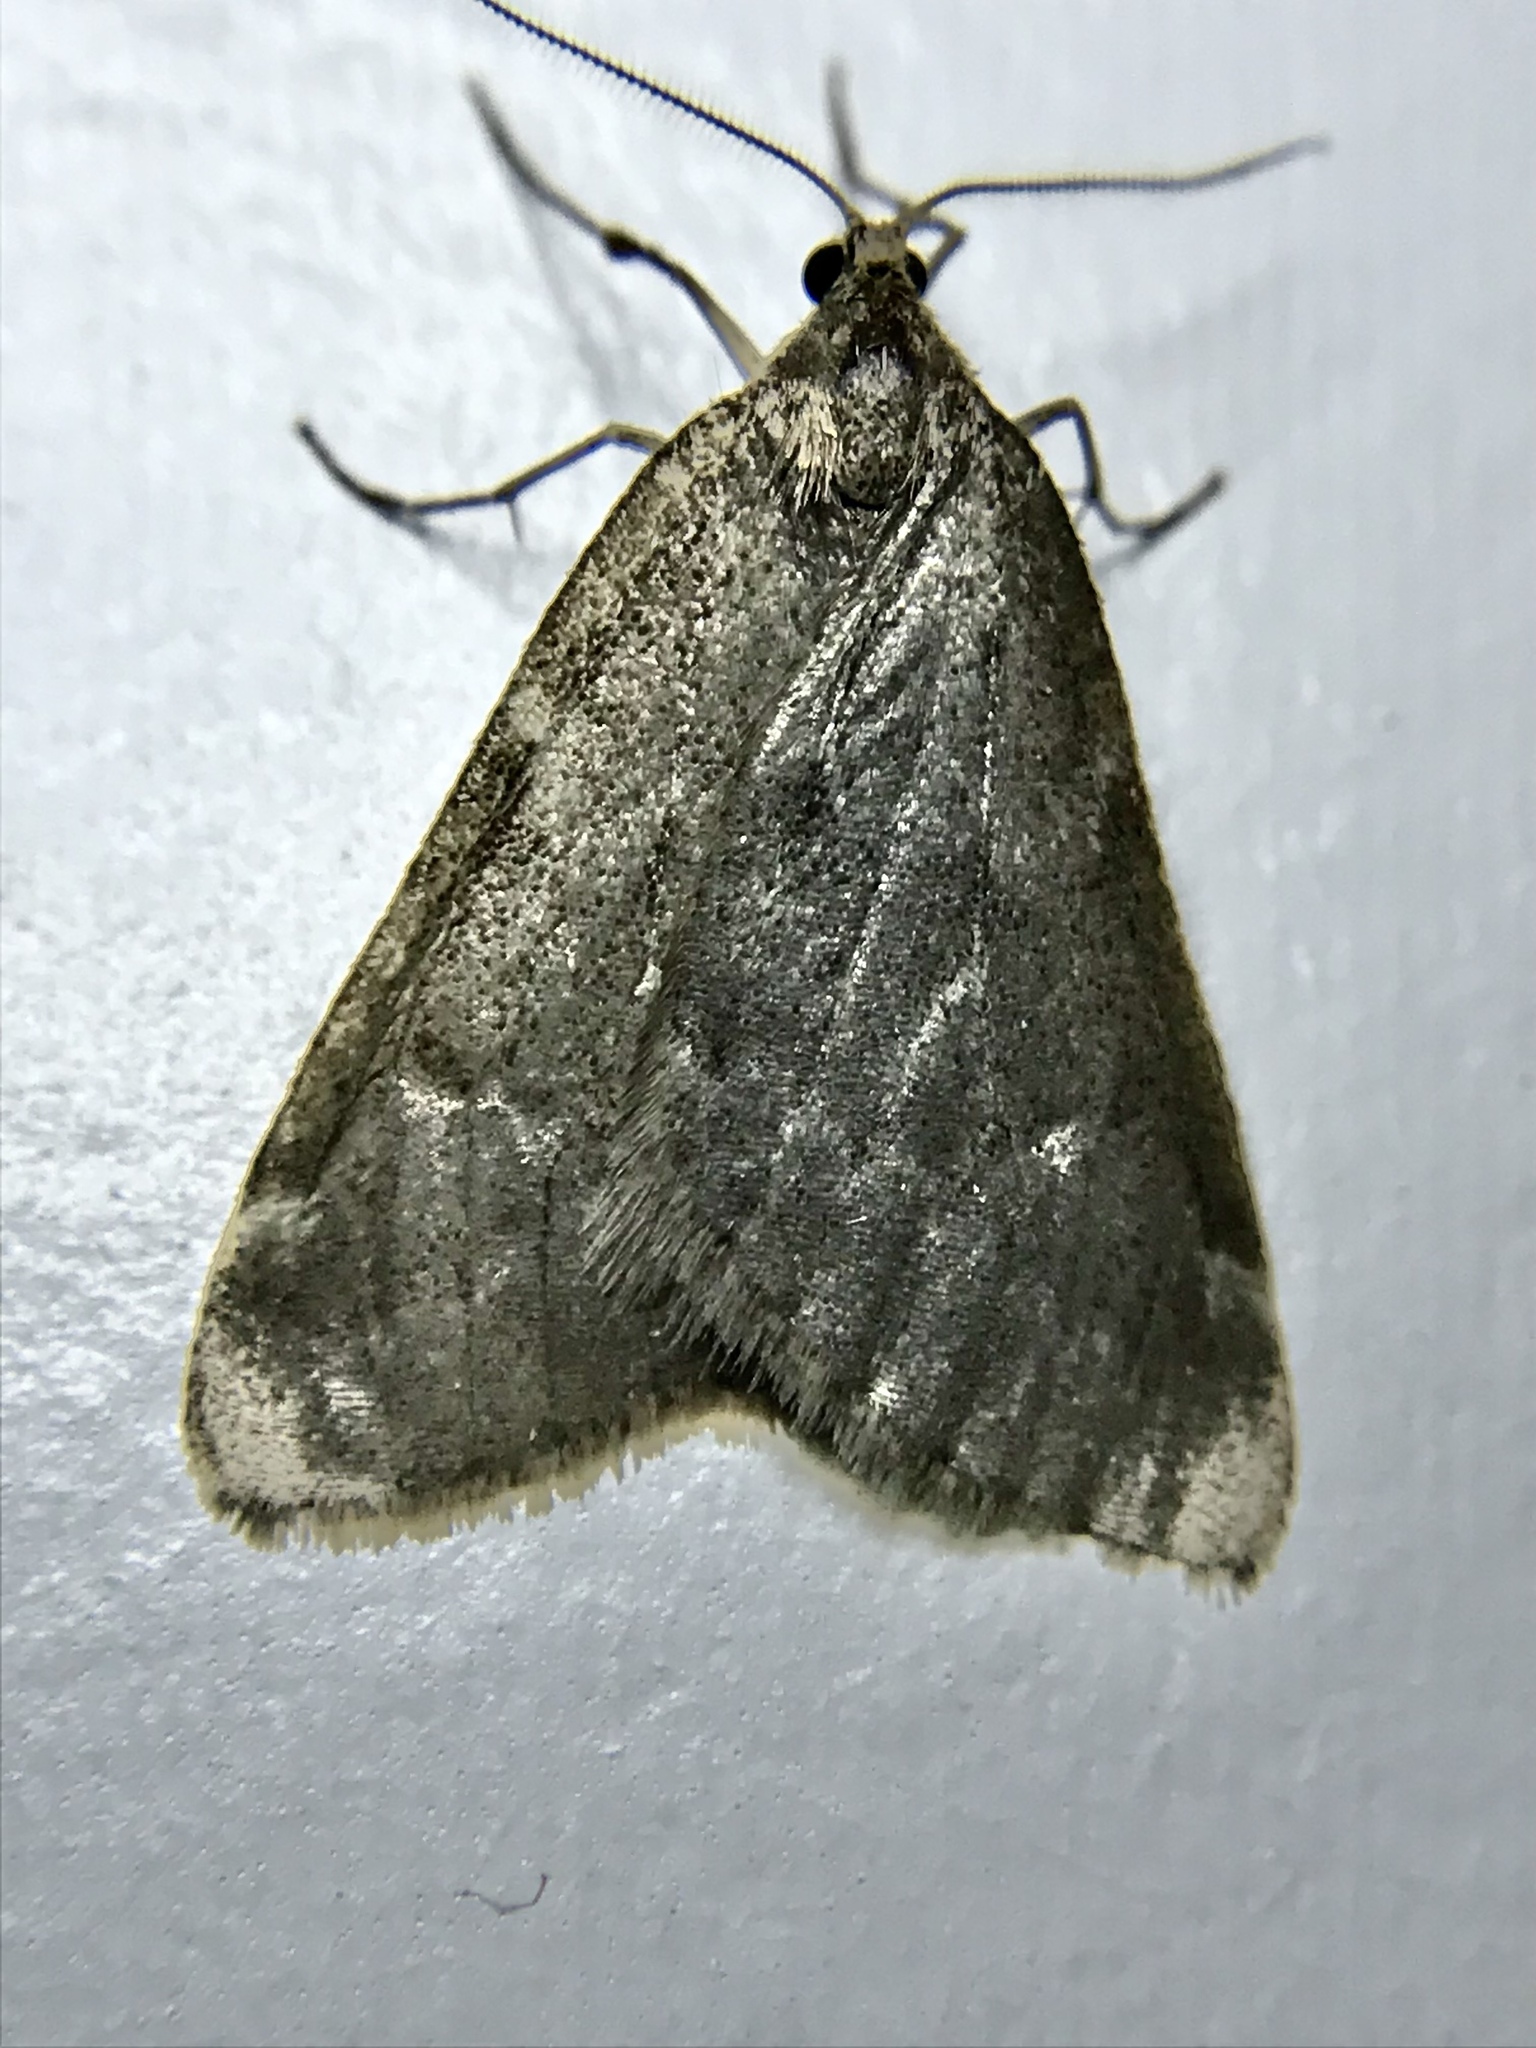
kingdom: Animalia
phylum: Arthropoda
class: Insecta
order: Lepidoptera
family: Geometridae
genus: Alsophila
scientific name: Alsophila pometaria
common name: Fall cankerworm
